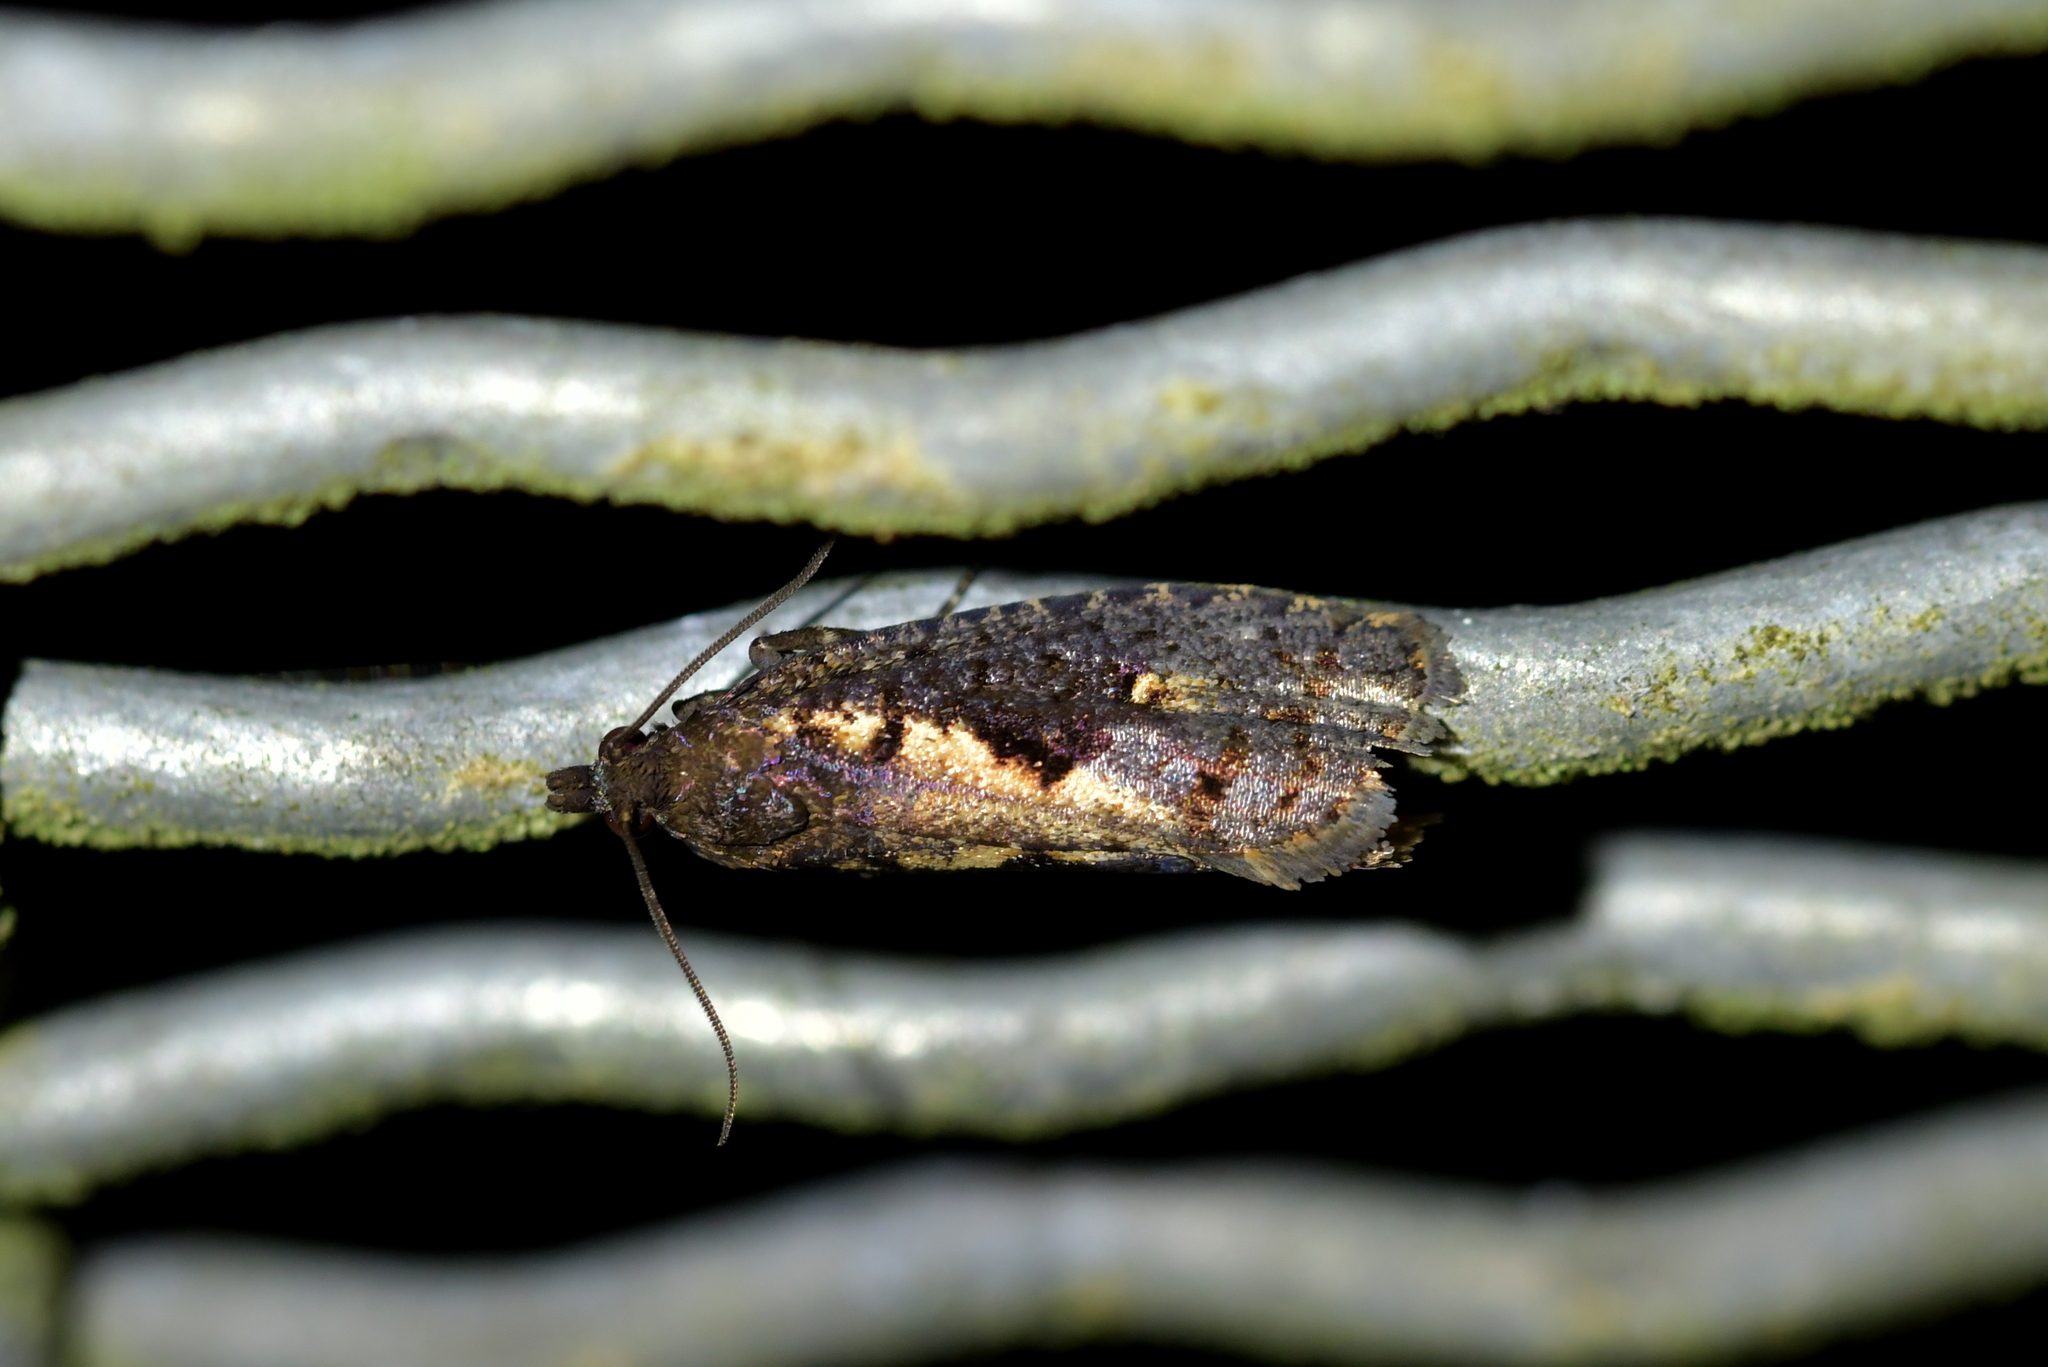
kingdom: Animalia
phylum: Arthropoda
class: Insecta
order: Lepidoptera
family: Tortricidae
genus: Cryptaspasma
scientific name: Cryptaspasma querula
